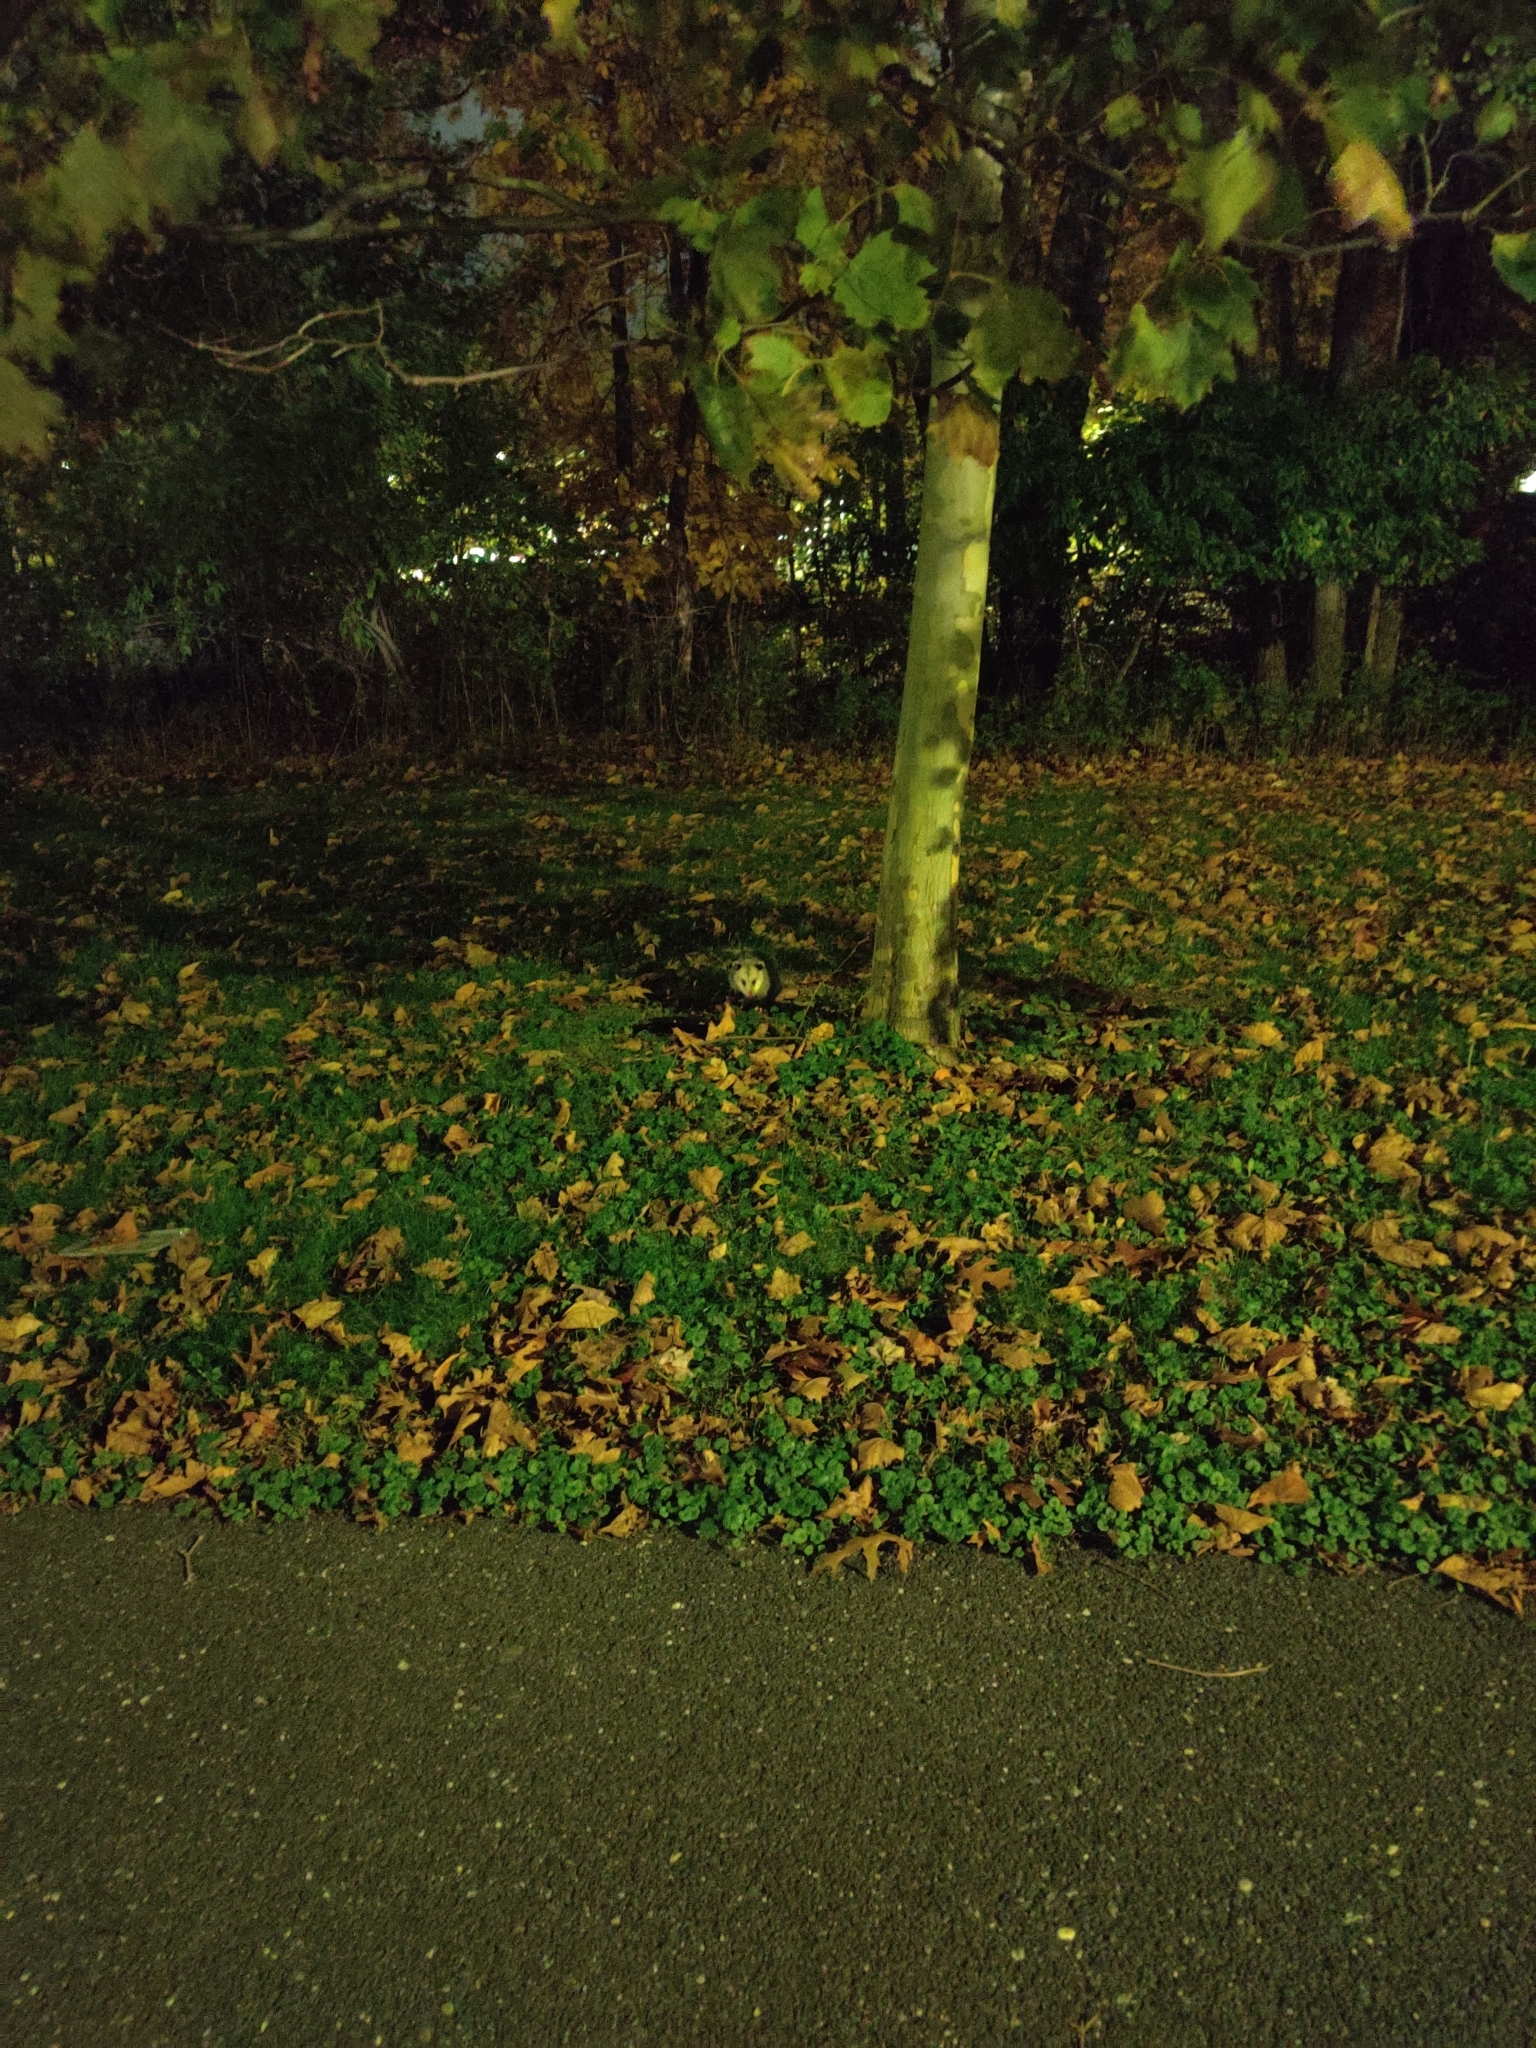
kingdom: Animalia
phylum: Chordata
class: Mammalia
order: Didelphimorphia
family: Didelphidae
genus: Didelphis
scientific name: Didelphis virginiana
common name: Virginia opossum
